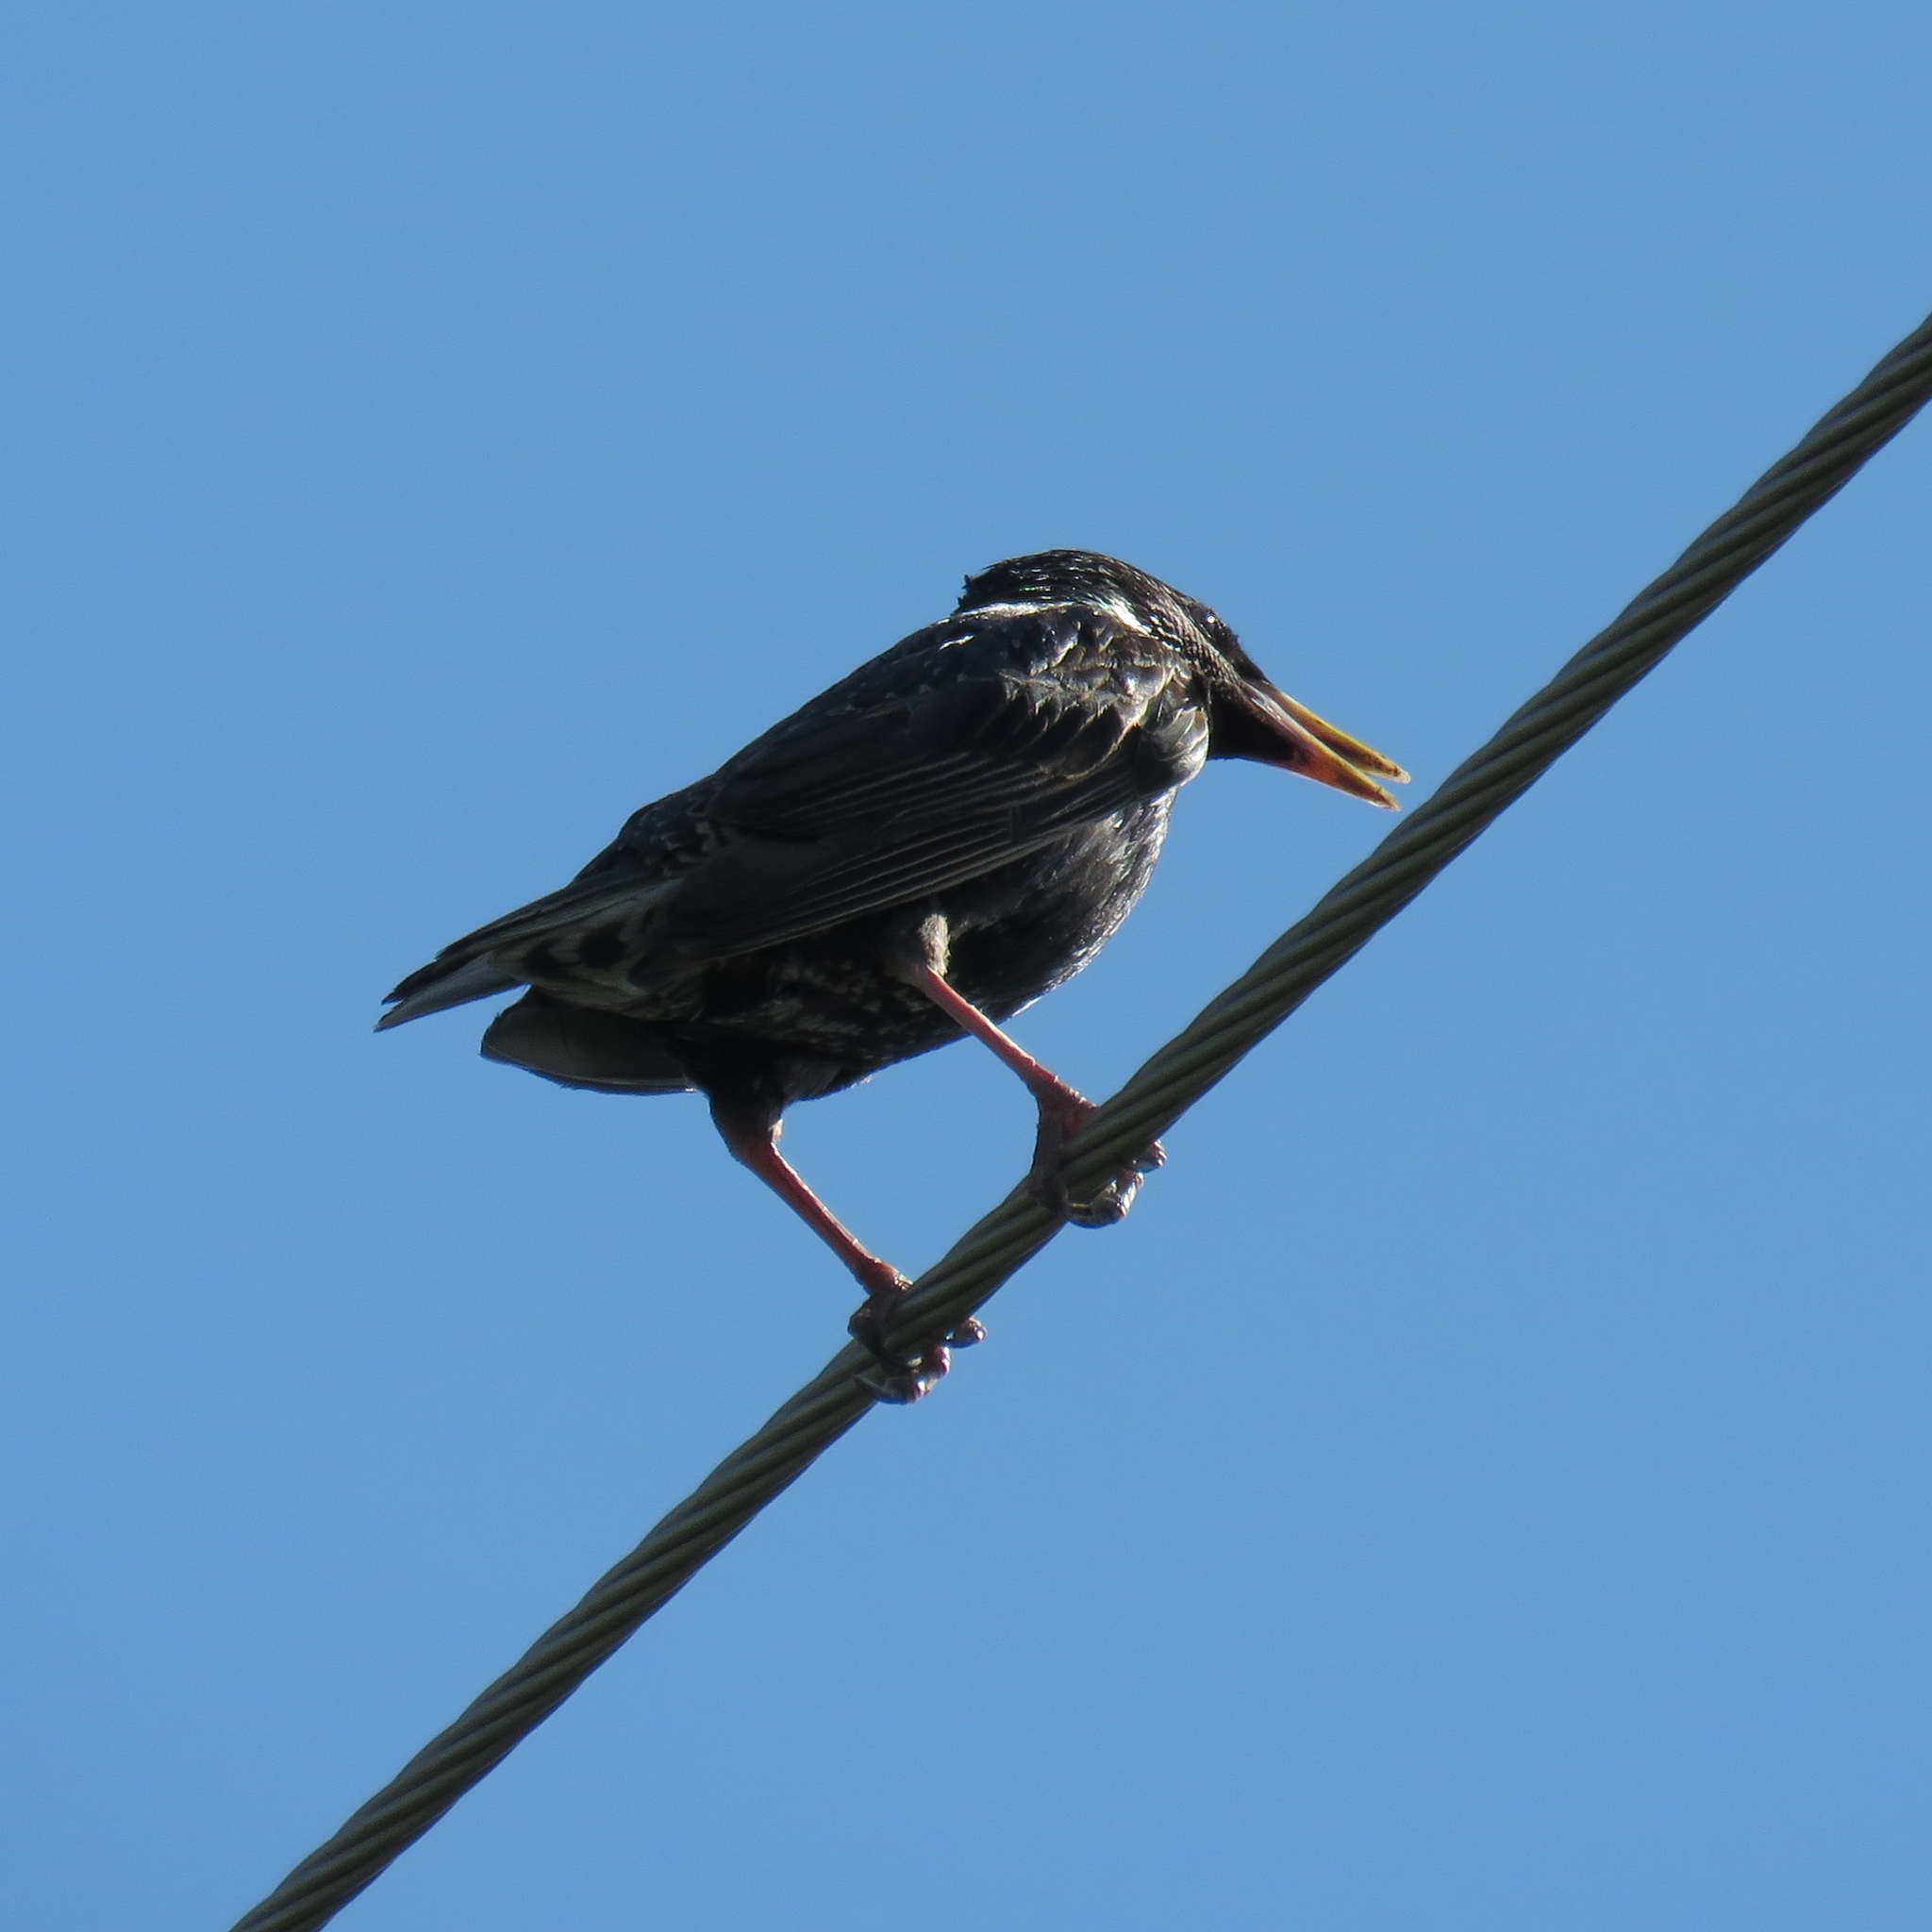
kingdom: Animalia
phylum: Chordata
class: Aves
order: Passeriformes
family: Sturnidae
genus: Sturnus
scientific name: Sturnus vulgaris
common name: Common starling
